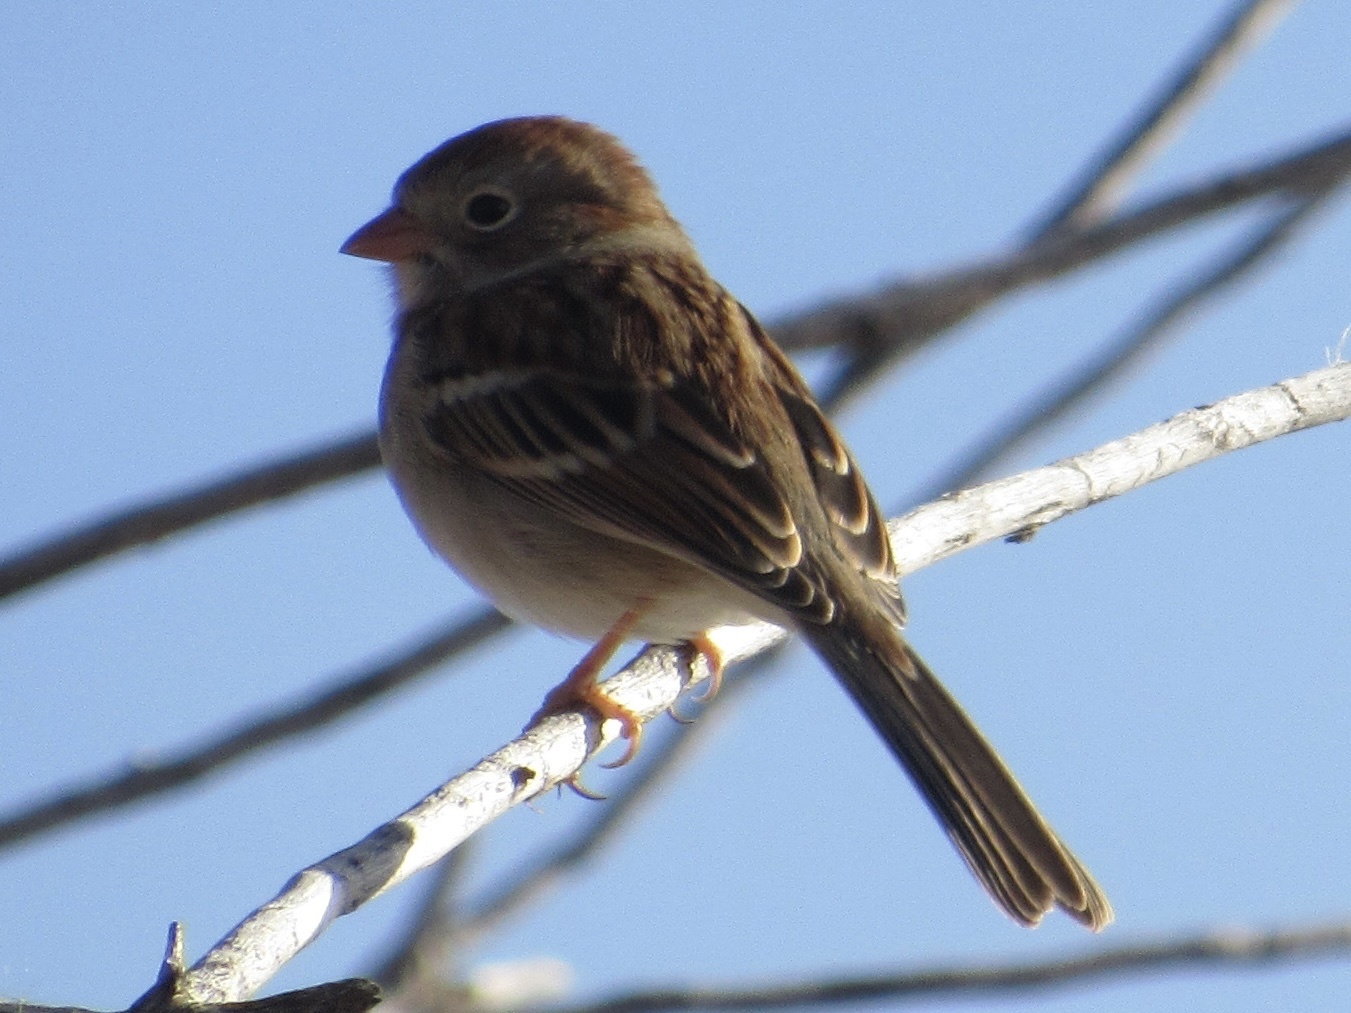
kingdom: Animalia
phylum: Chordata
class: Aves
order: Passeriformes
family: Passerellidae
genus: Spizella
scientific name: Spizella pusilla
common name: Field sparrow
